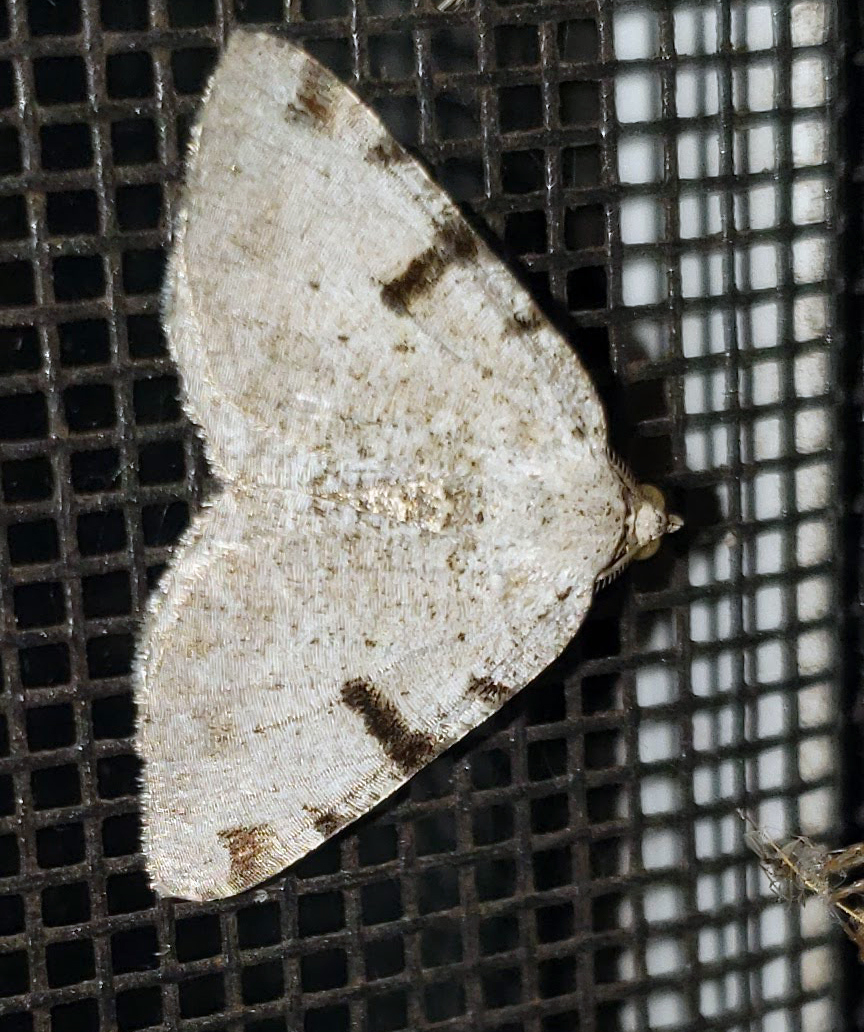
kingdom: Animalia
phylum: Arthropoda
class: Insecta
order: Lepidoptera
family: Geometridae
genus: Macaria
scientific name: Macaria subcessaria
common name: Barred angle
